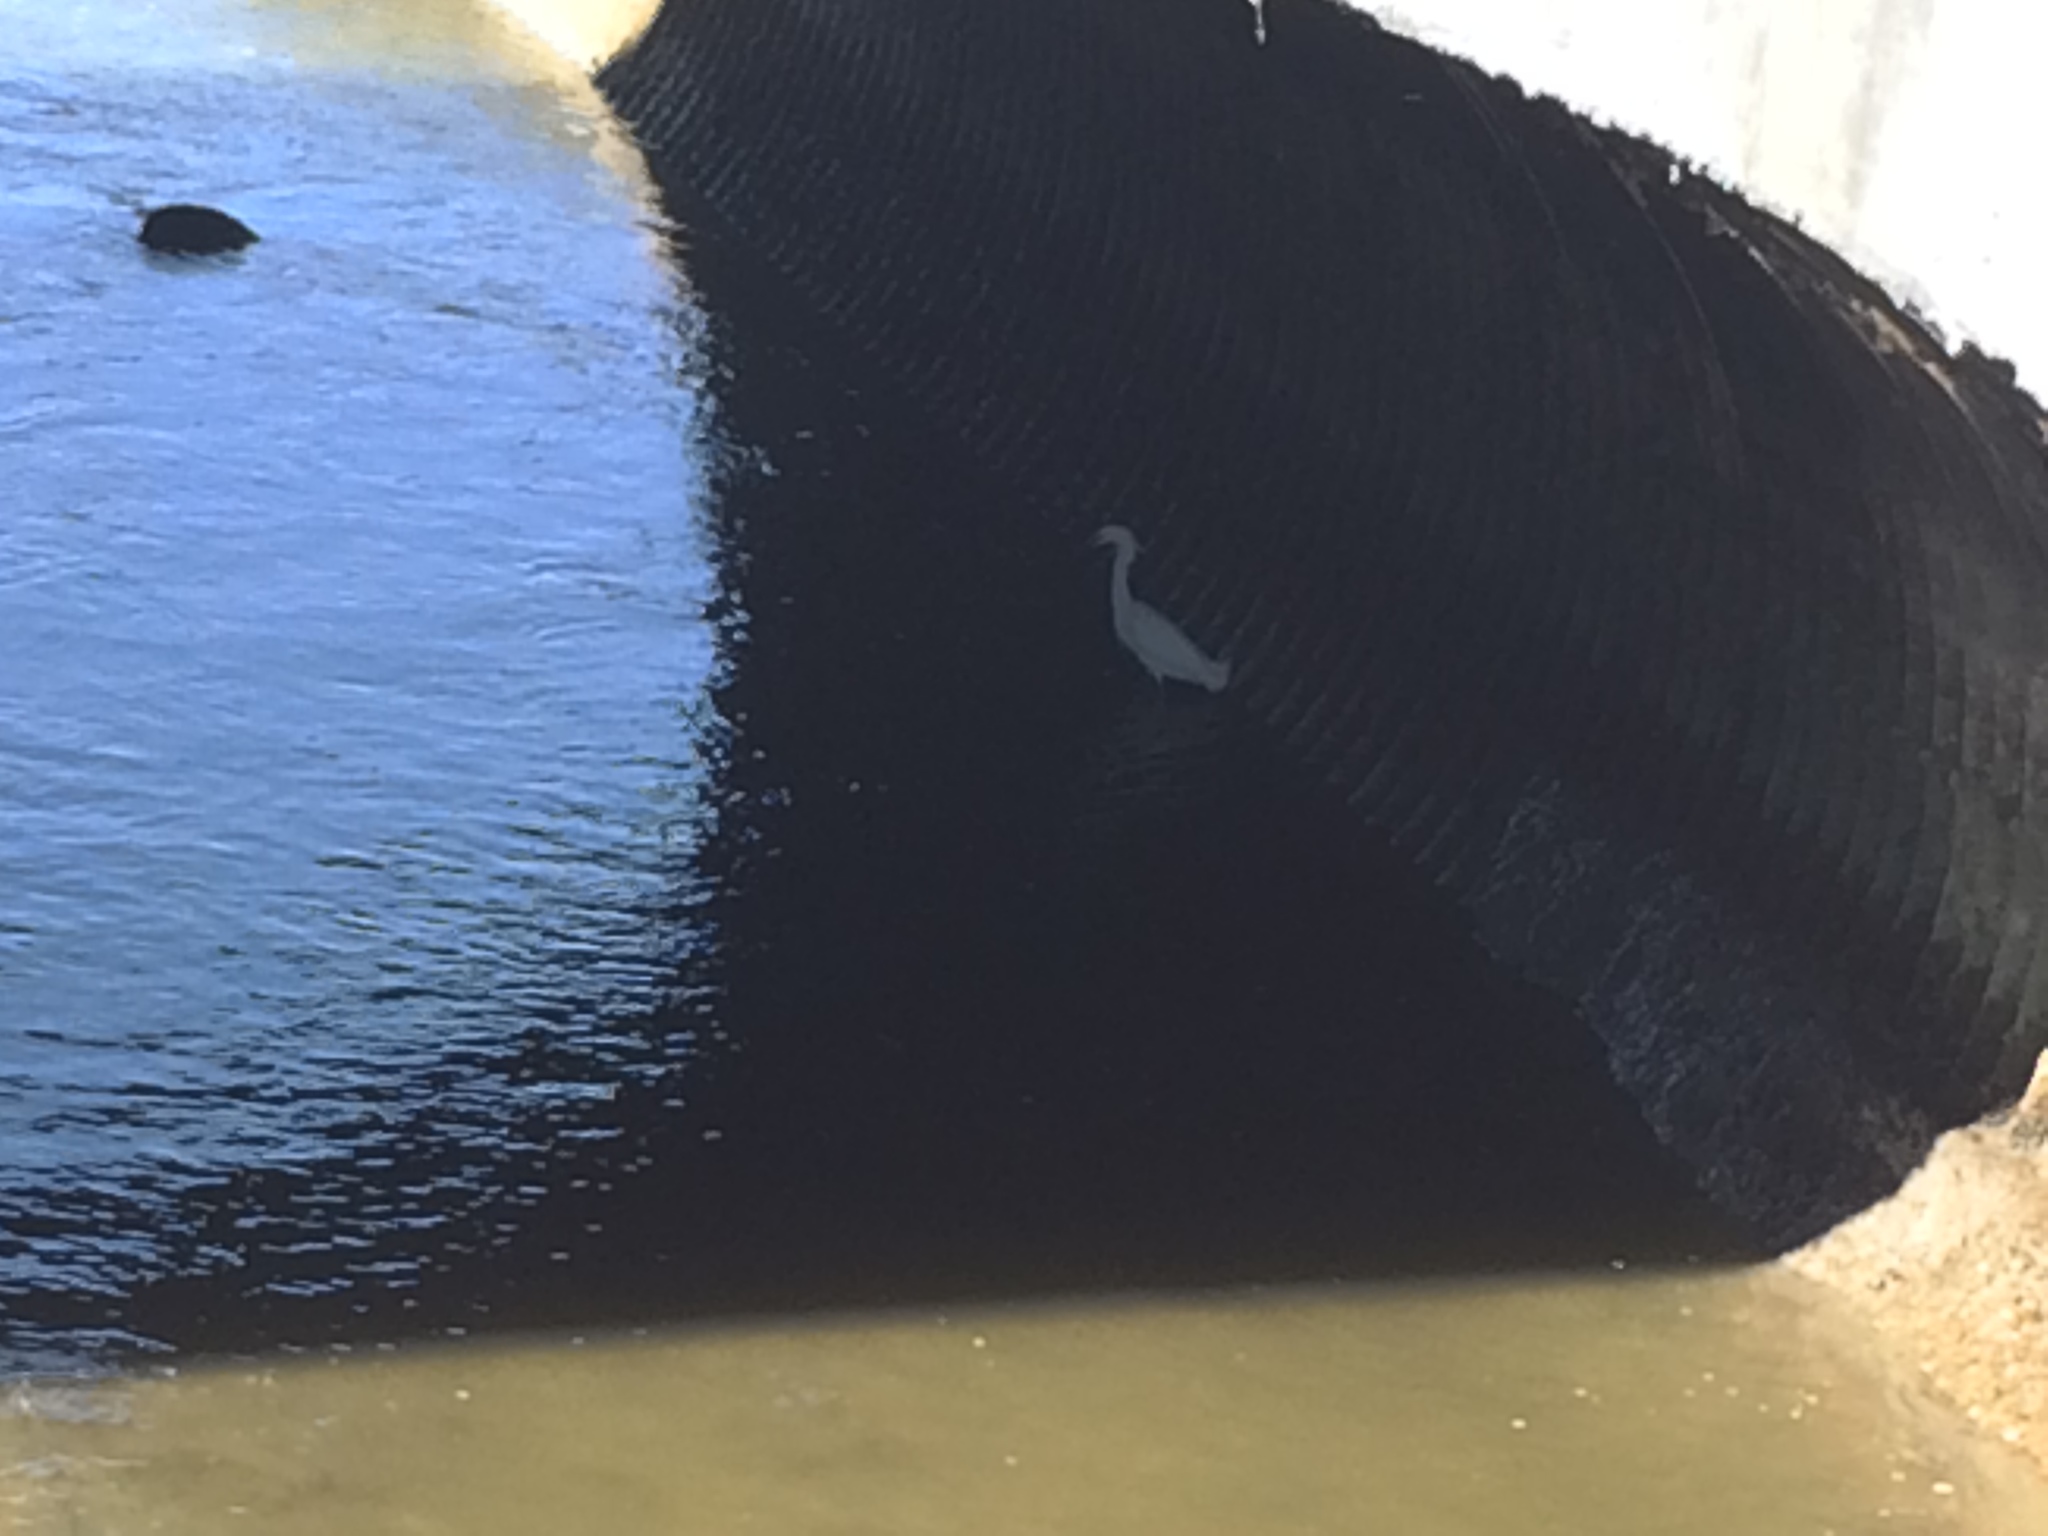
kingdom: Animalia
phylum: Chordata
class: Aves
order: Pelecaniformes
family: Ardeidae
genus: Egretta
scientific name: Egretta thula
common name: Snowy egret
